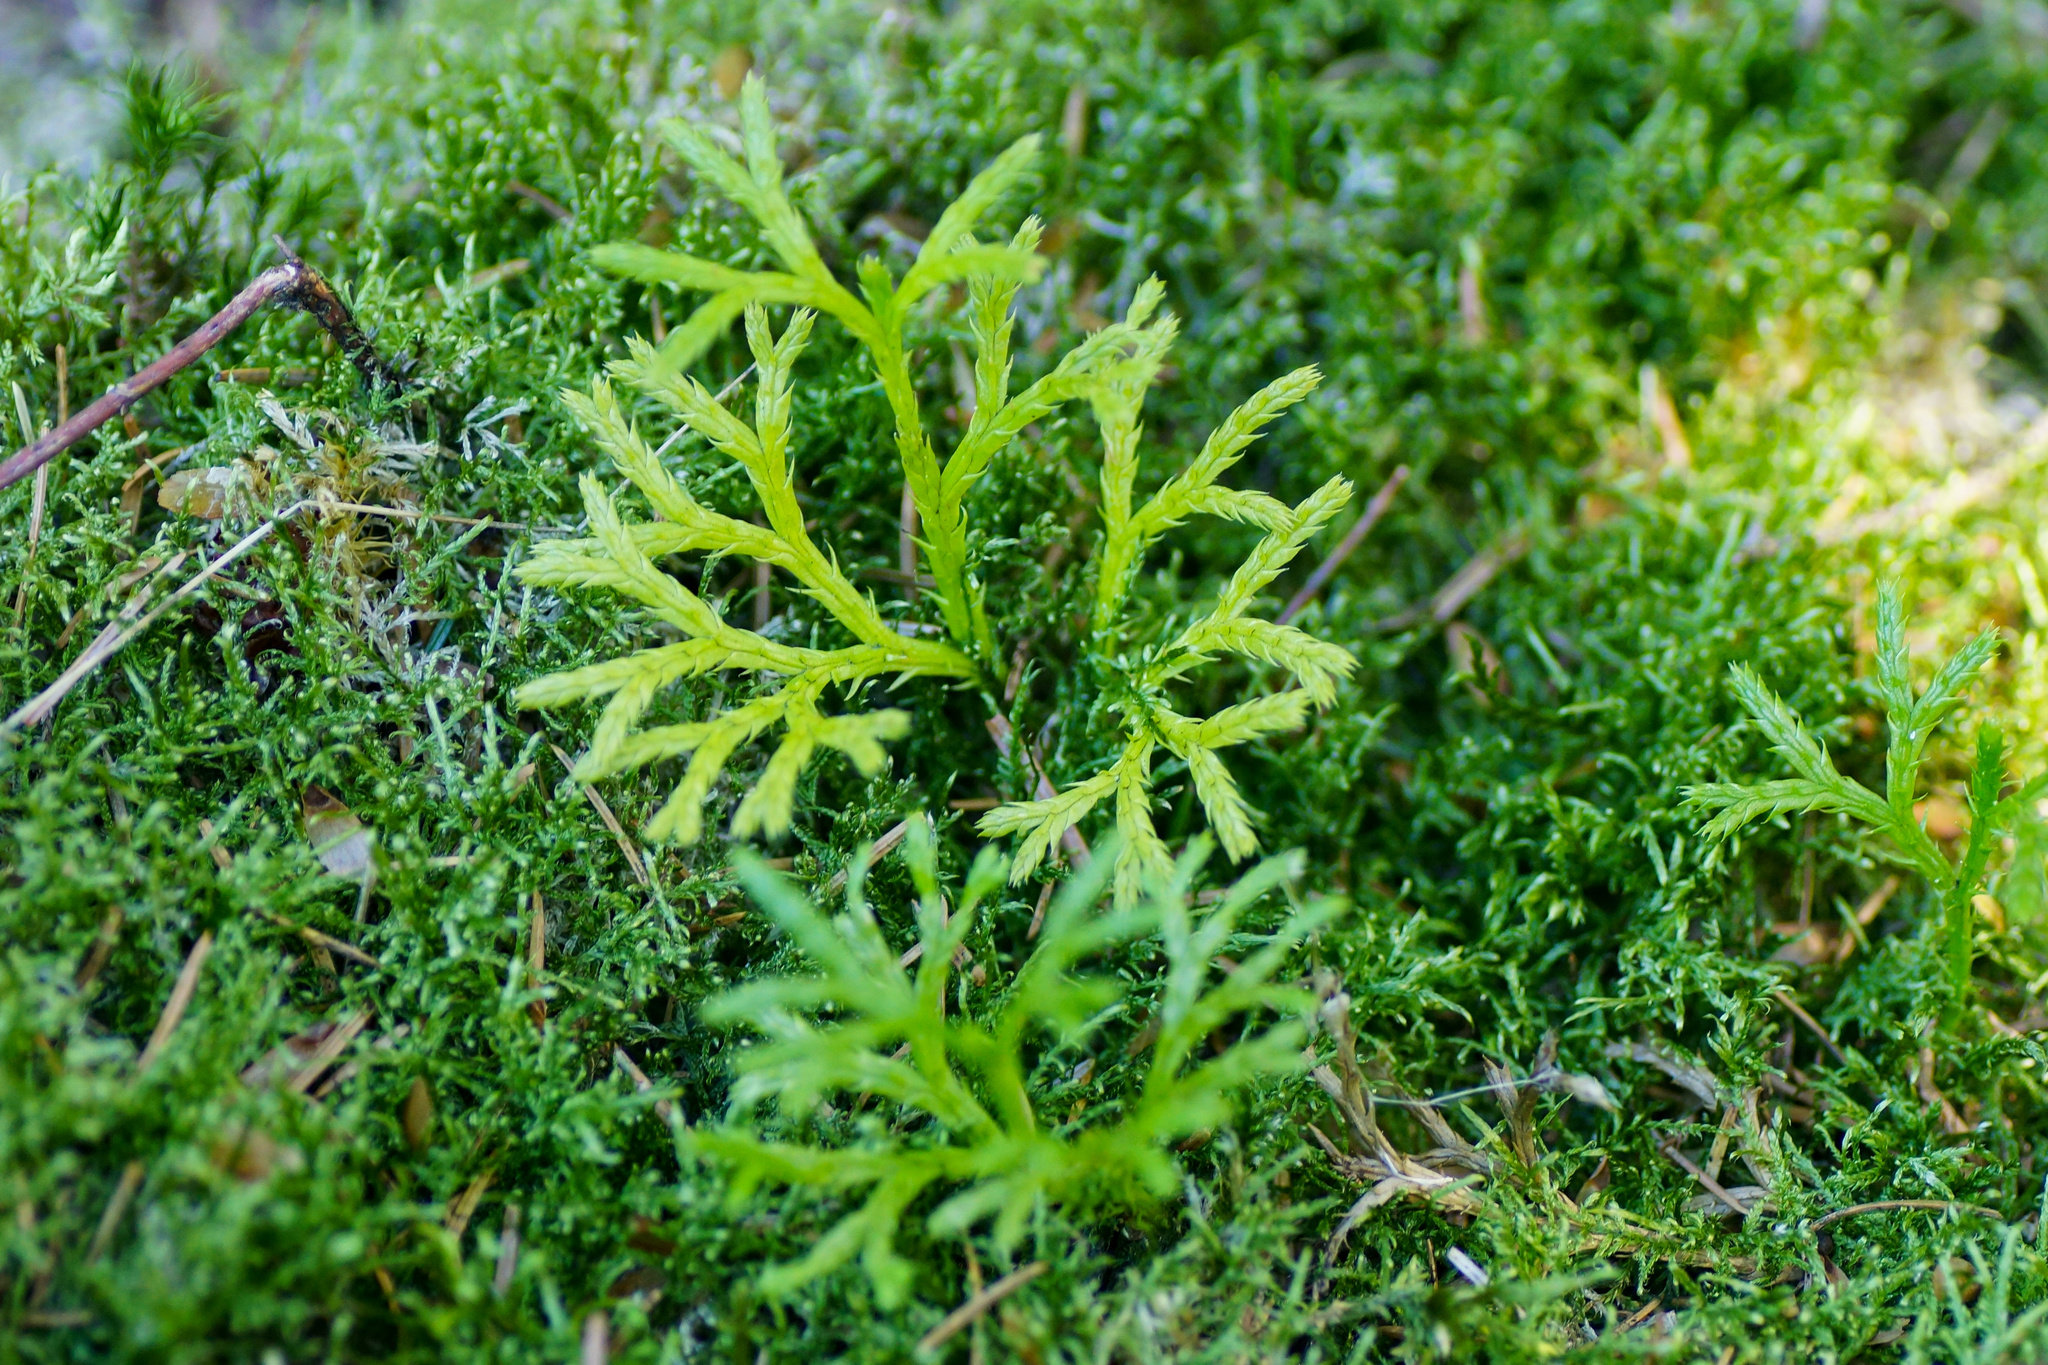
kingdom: Plantae
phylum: Tracheophyta
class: Lycopodiopsida
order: Lycopodiales
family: Lycopodiaceae
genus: Diphasiastrum
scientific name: Diphasiastrum complanatum
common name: Northern running-pine
